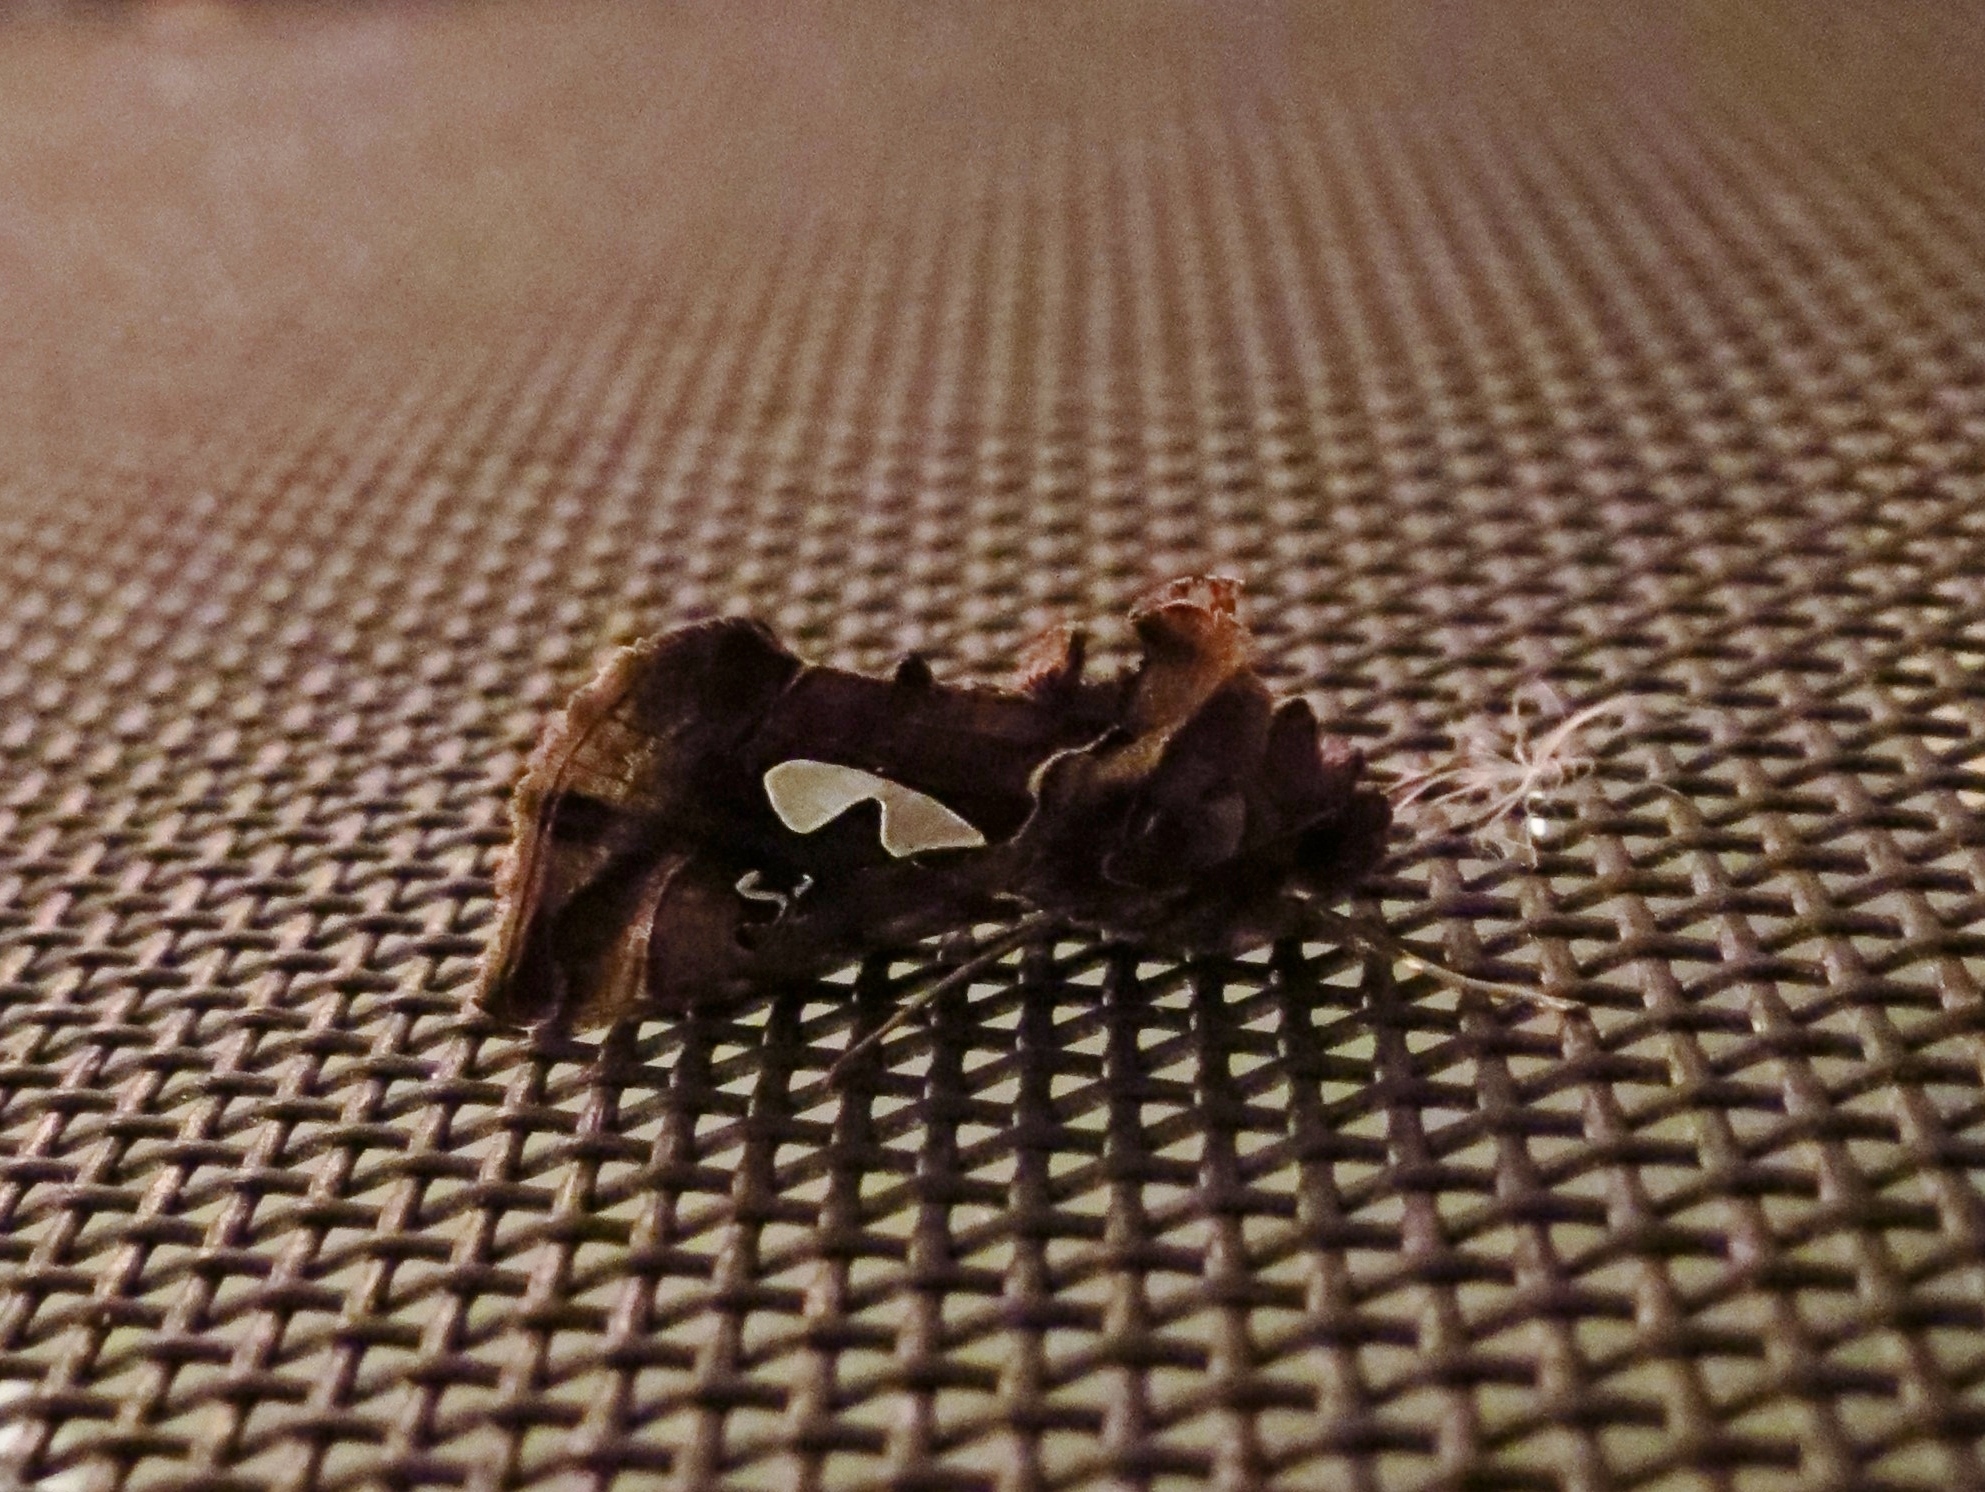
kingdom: Animalia
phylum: Arthropoda
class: Insecta
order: Lepidoptera
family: Noctuidae
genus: Megalographa
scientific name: Megalographa biloba
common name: Cutworm
